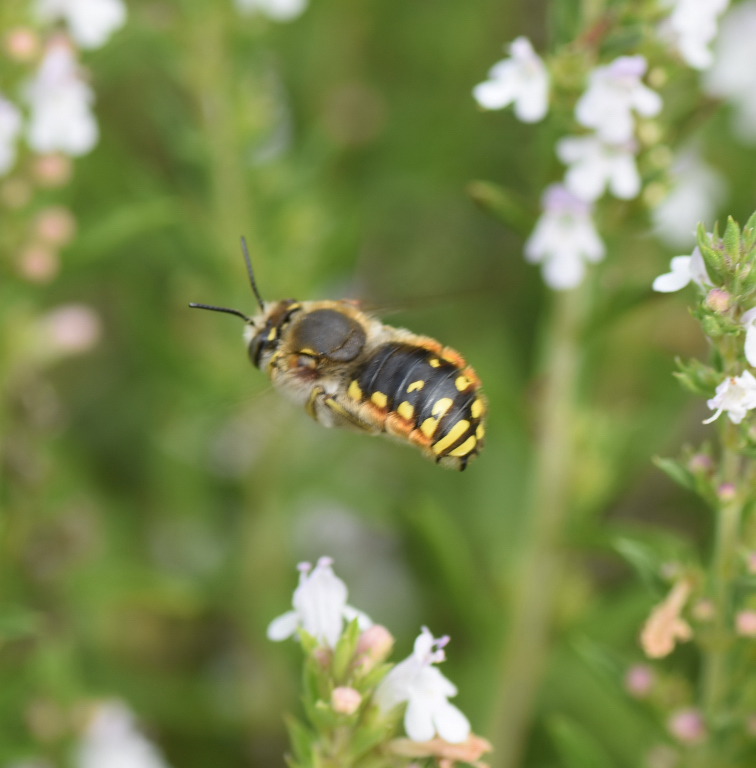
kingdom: Animalia
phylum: Arthropoda
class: Insecta
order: Hymenoptera
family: Megachilidae
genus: Anthidium
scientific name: Anthidium manicatum
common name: Wool carder bee
